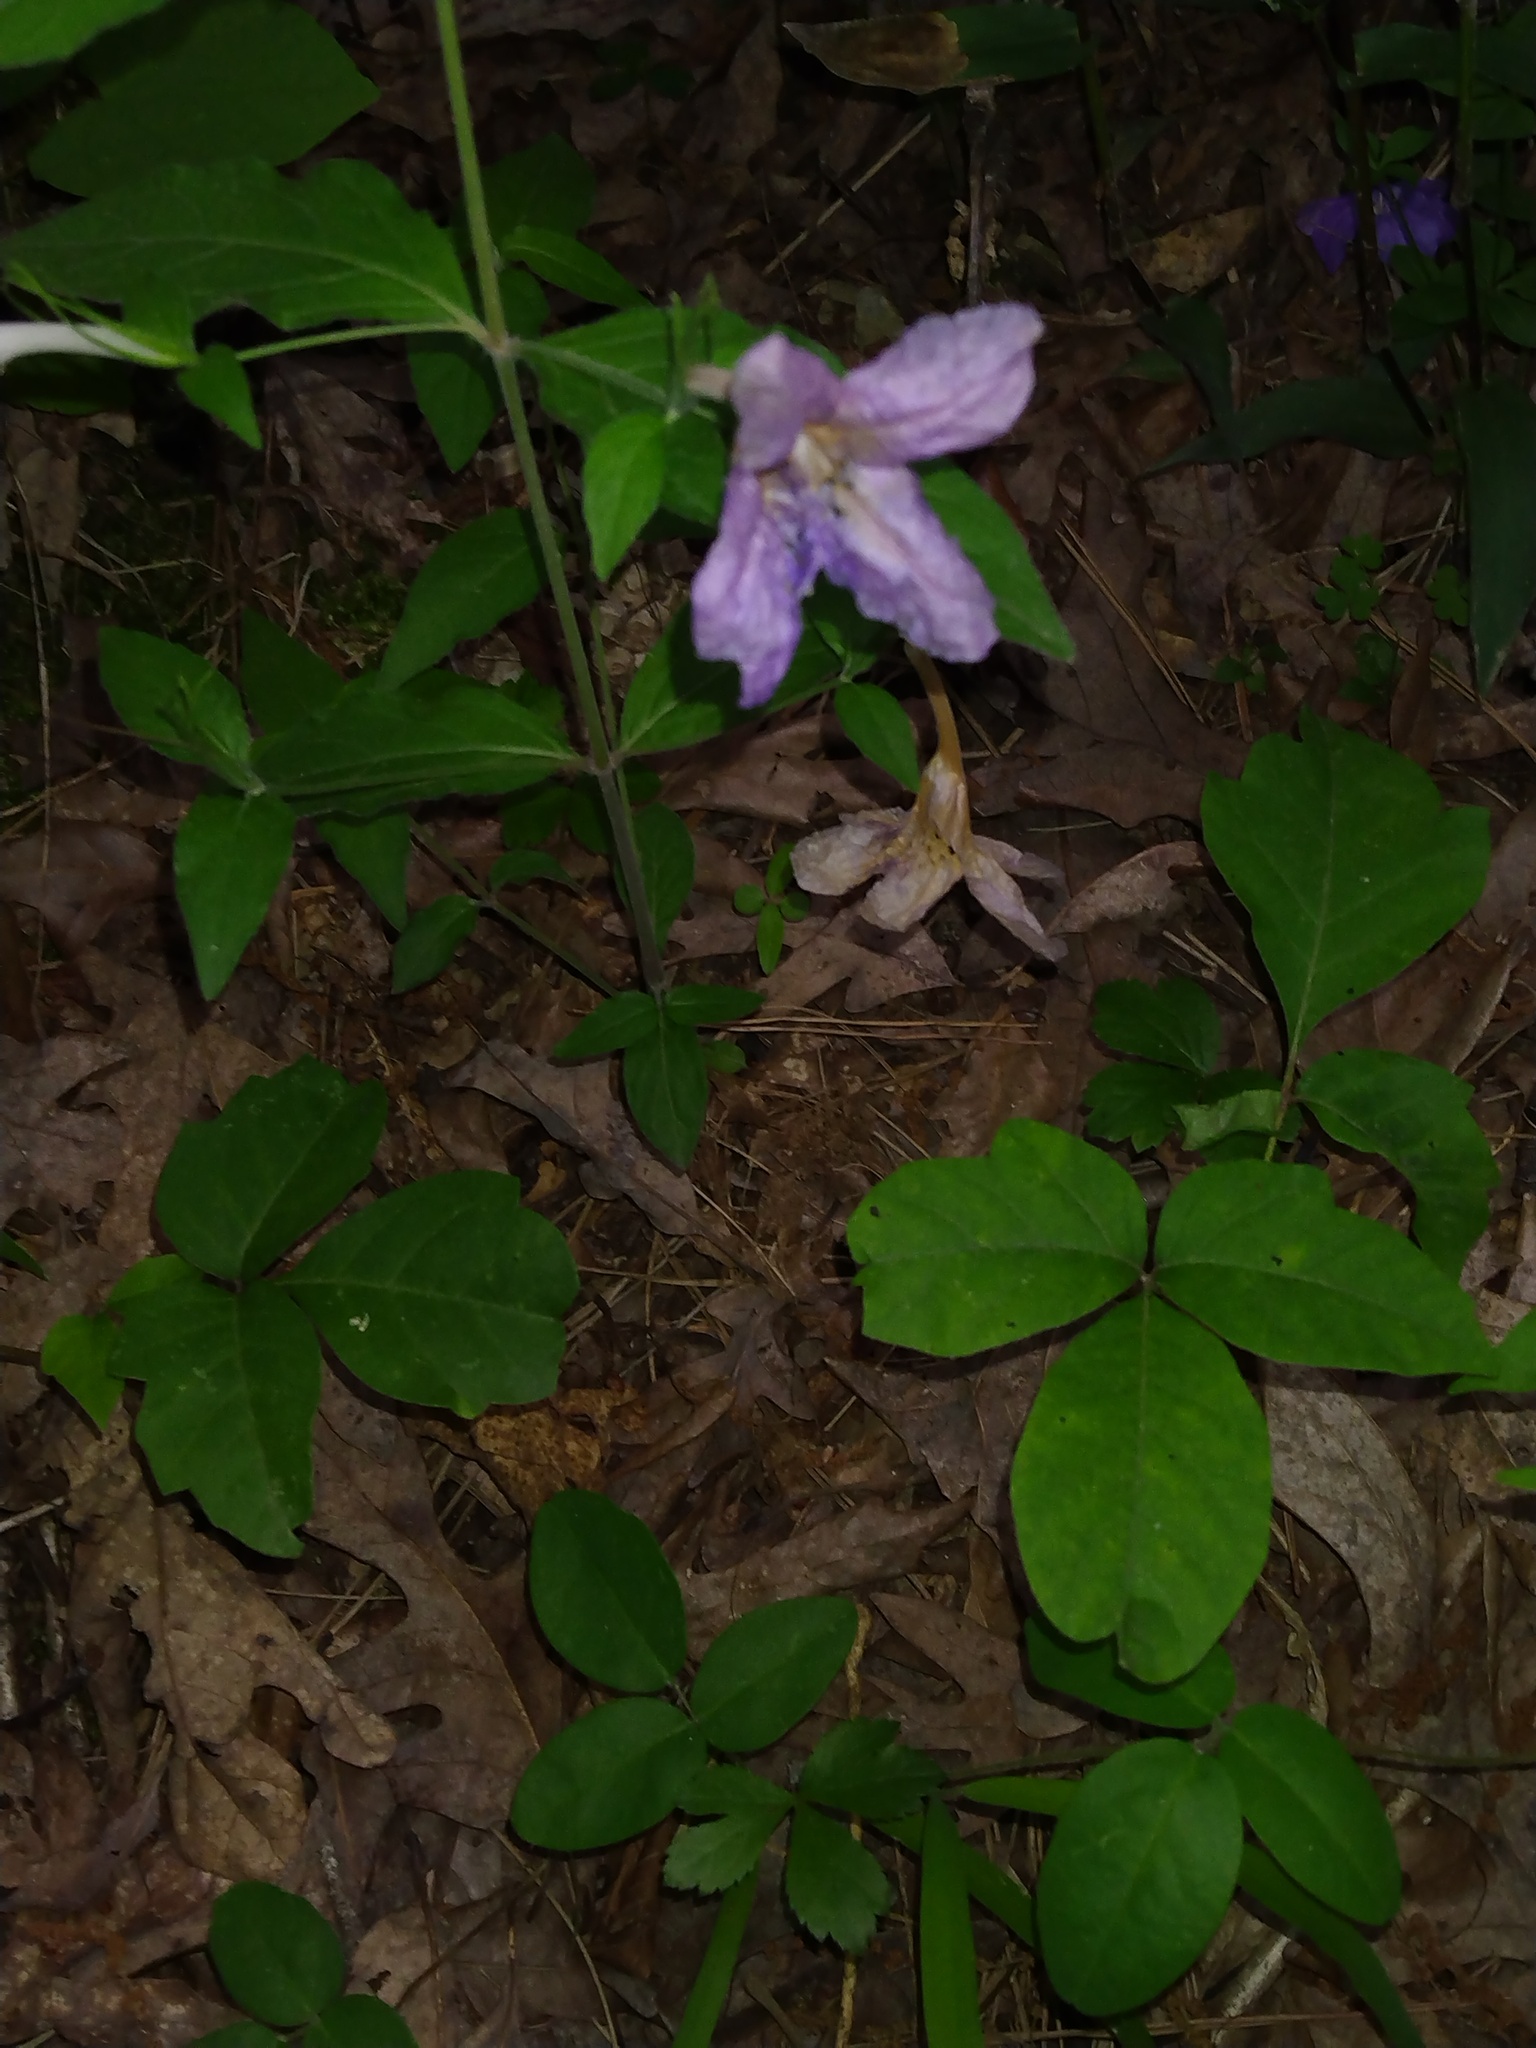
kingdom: Plantae
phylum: Tracheophyta
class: Magnoliopsida
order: Lamiales
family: Acanthaceae
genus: Ruellia
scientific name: Ruellia pedunculata
